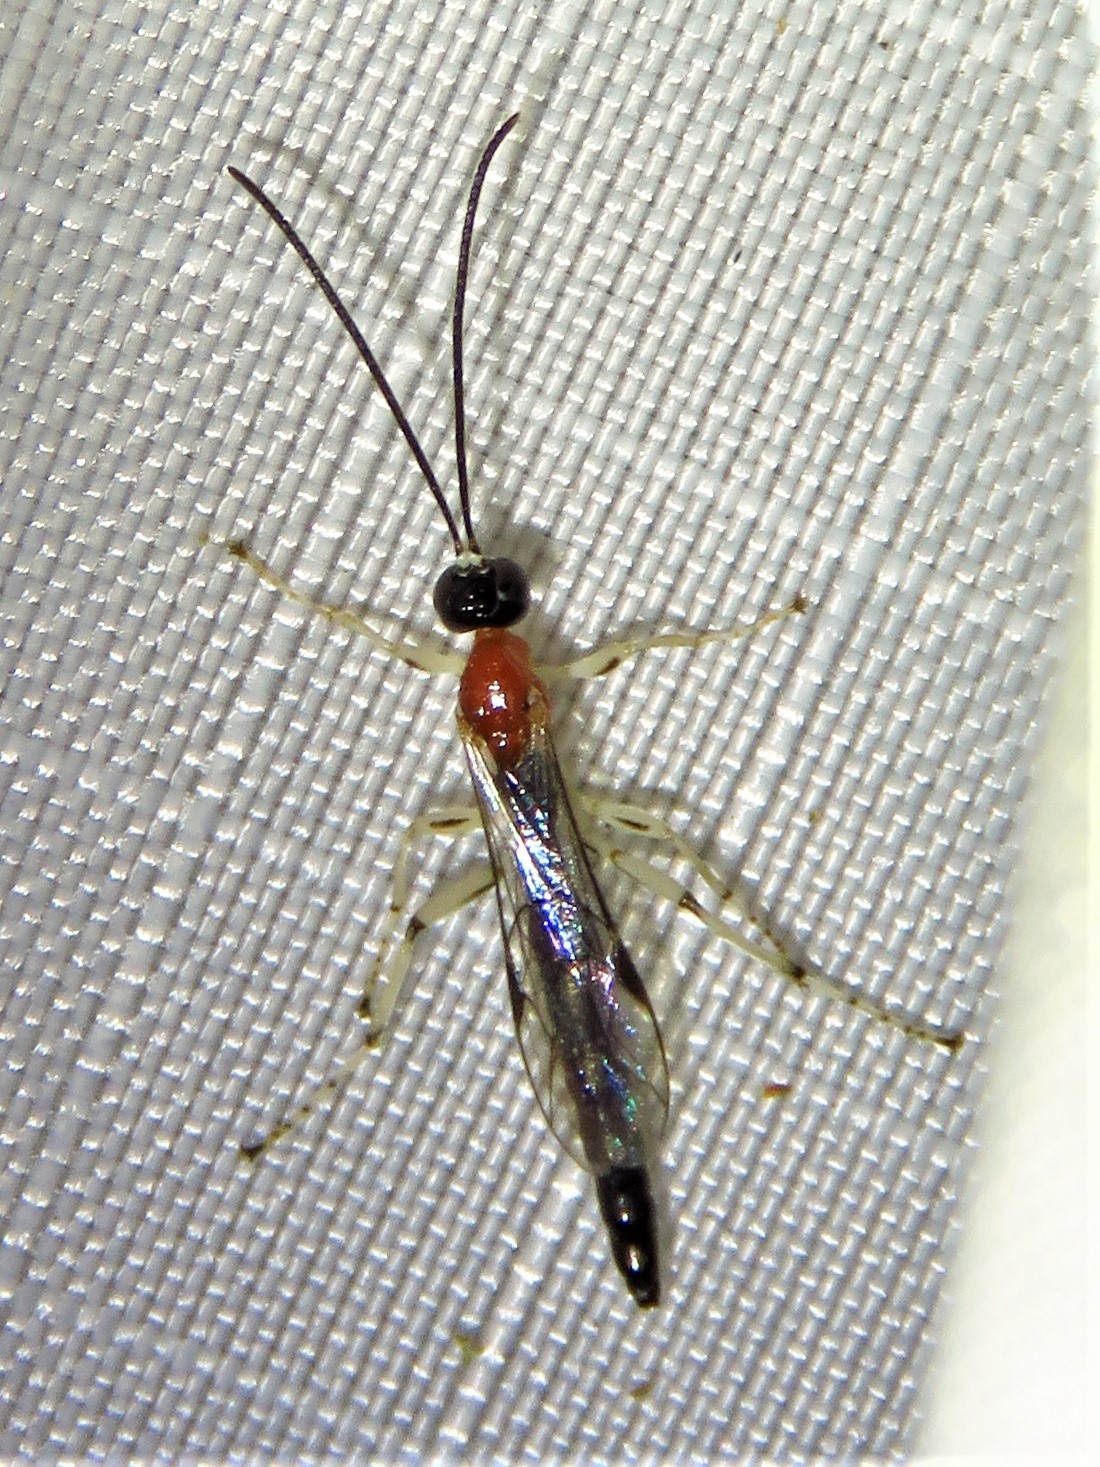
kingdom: Animalia
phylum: Arthropoda
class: Insecta
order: Hymenoptera
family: Ichneumonidae
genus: Calliephialtes
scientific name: Calliephialtes grapholithae
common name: Parasitoid wasp
